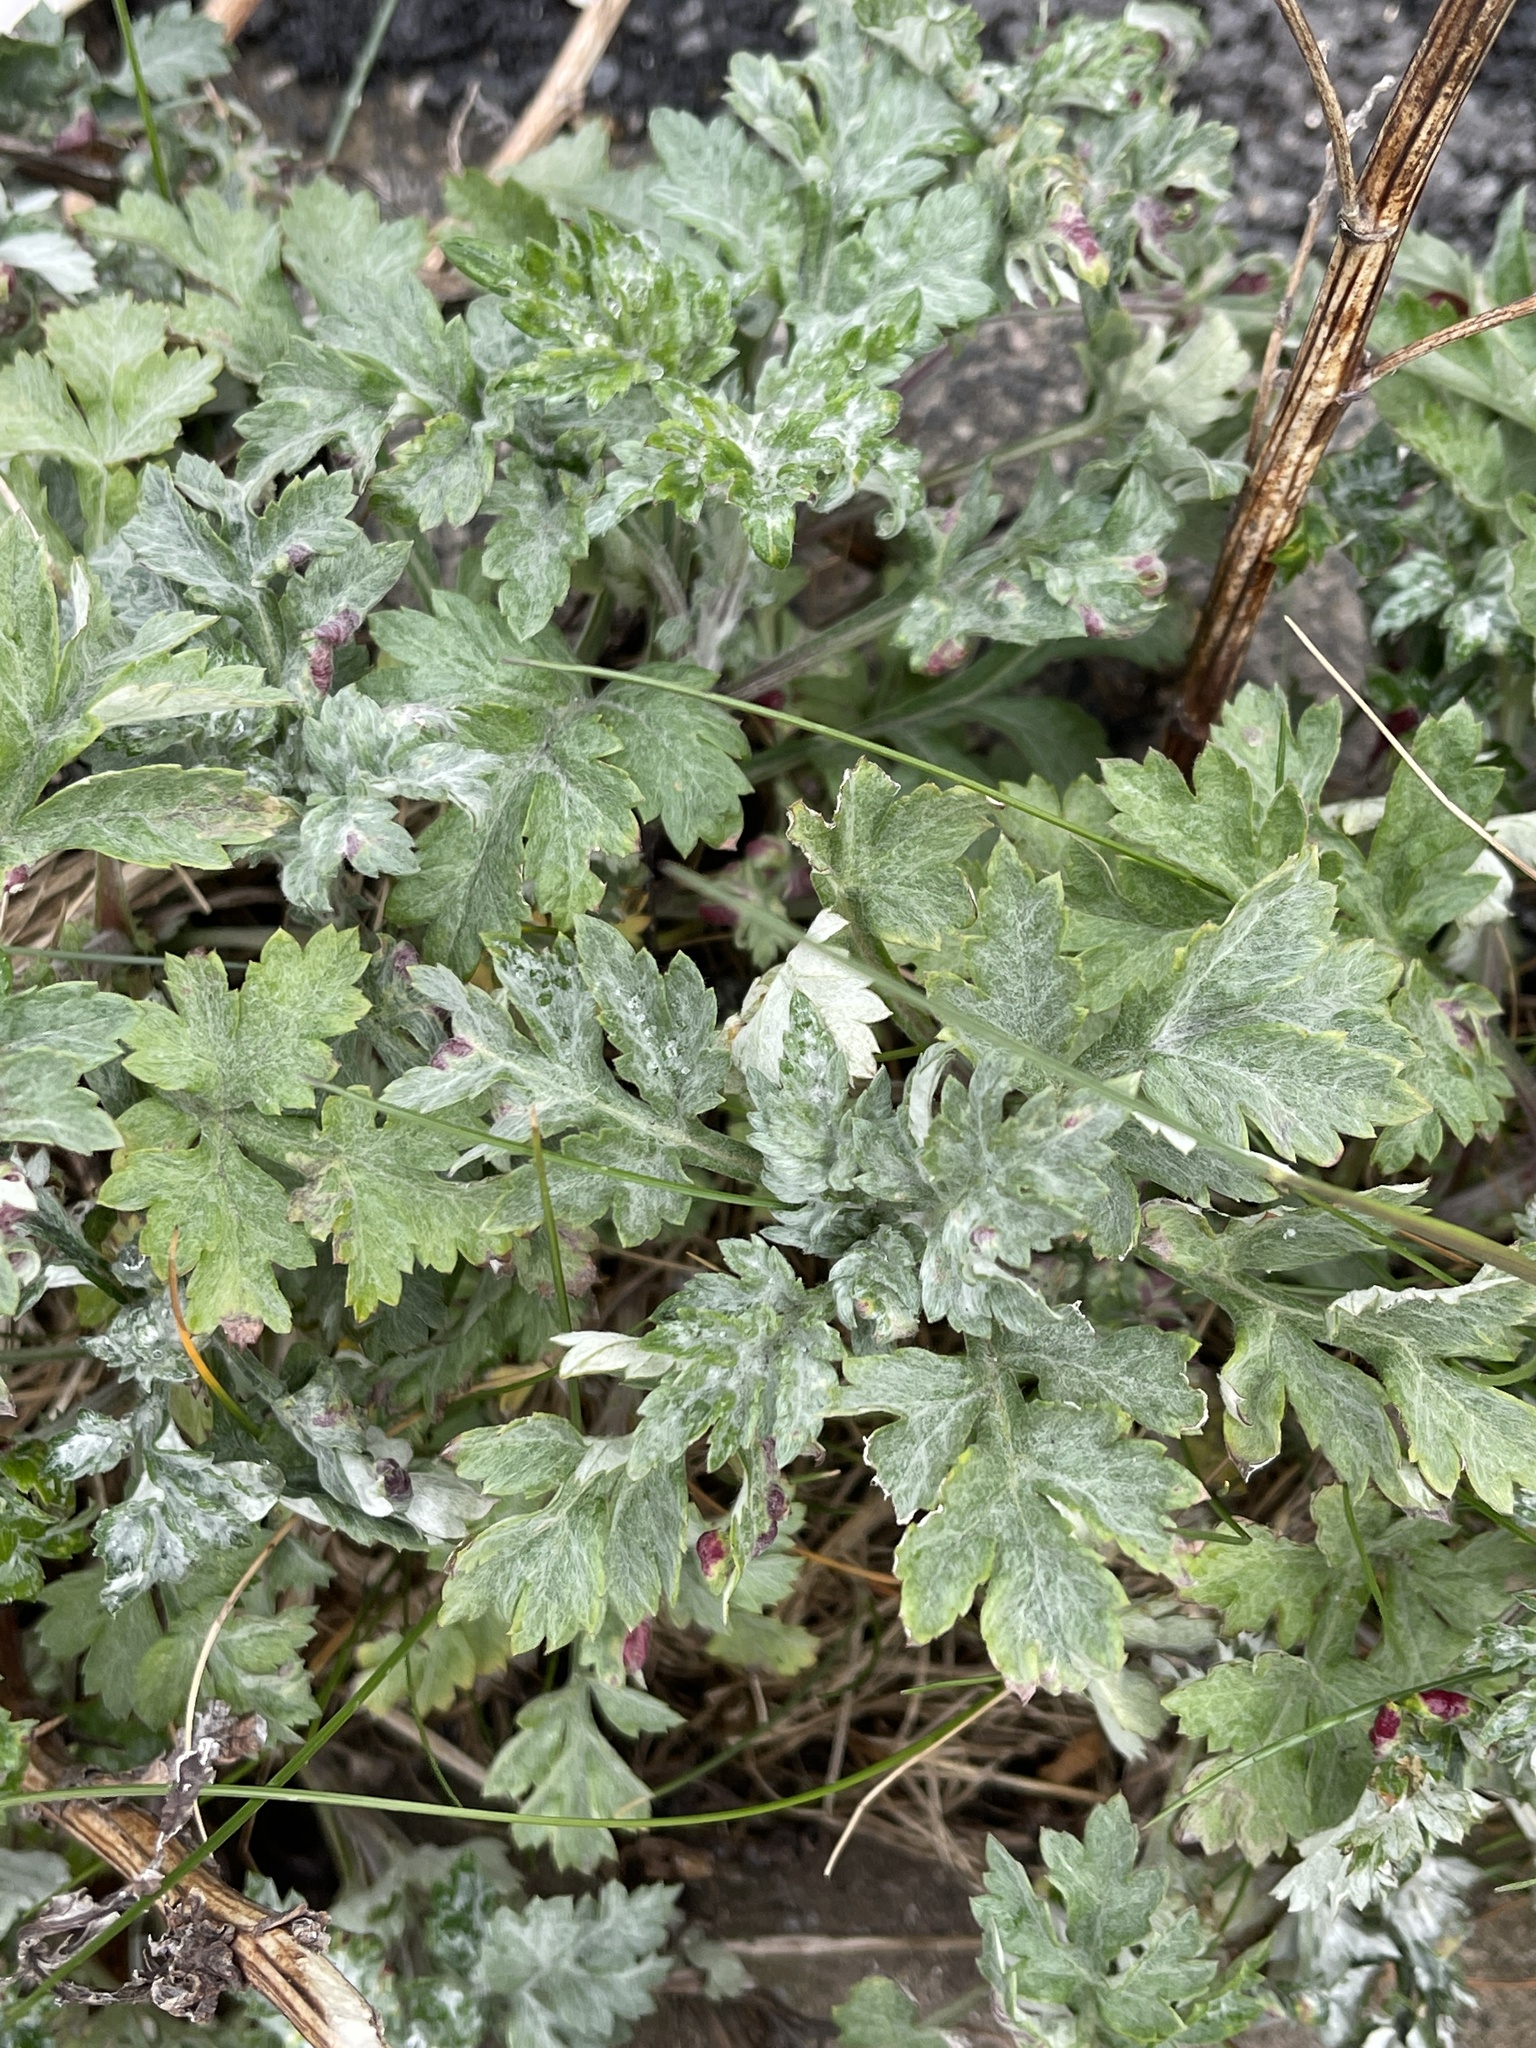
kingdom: Plantae
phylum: Tracheophyta
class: Magnoliopsida
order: Asterales
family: Asteraceae
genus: Artemisia
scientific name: Artemisia vulgaris
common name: Mugwort
